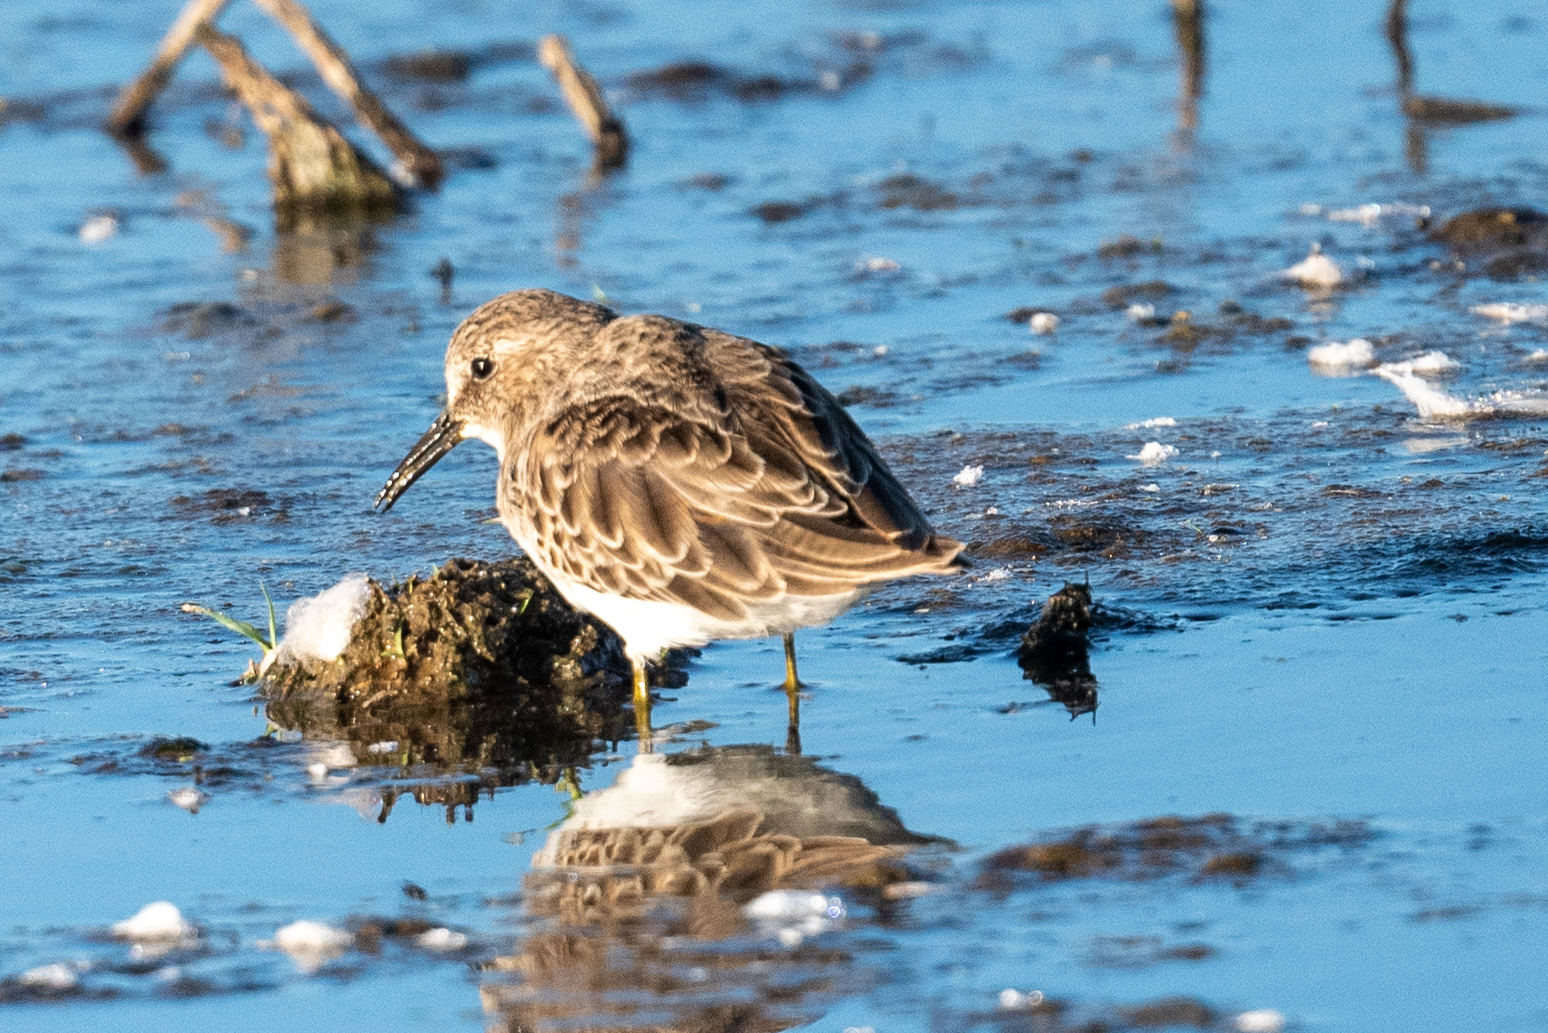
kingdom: Animalia
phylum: Chordata
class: Aves
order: Charadriiformes
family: Scolopacidae
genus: Calidris
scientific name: Calidris minutilla
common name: Least sandpiper
